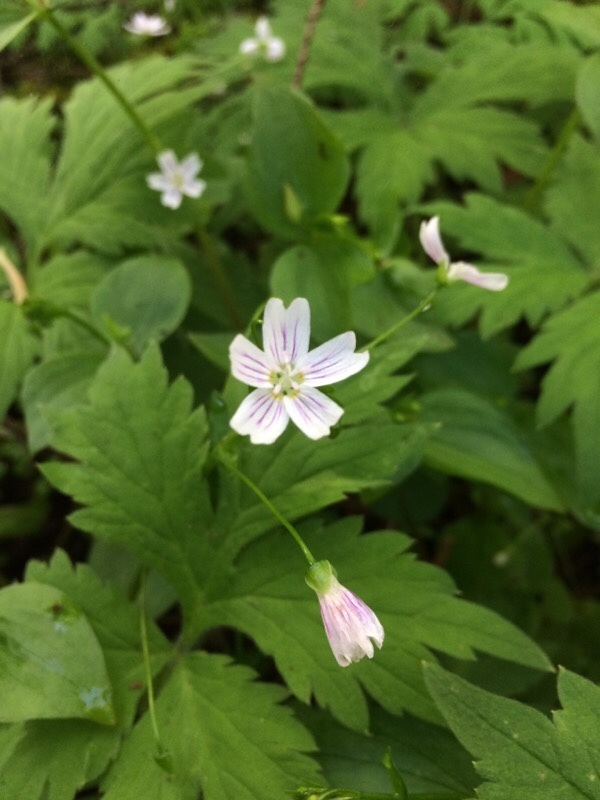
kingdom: Plantae
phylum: Tracheophyta
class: Magnoliopsida
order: Caryophyllales
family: Montiaceae
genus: Claytonia
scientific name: Claytonia sibirica
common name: Pink purslane
